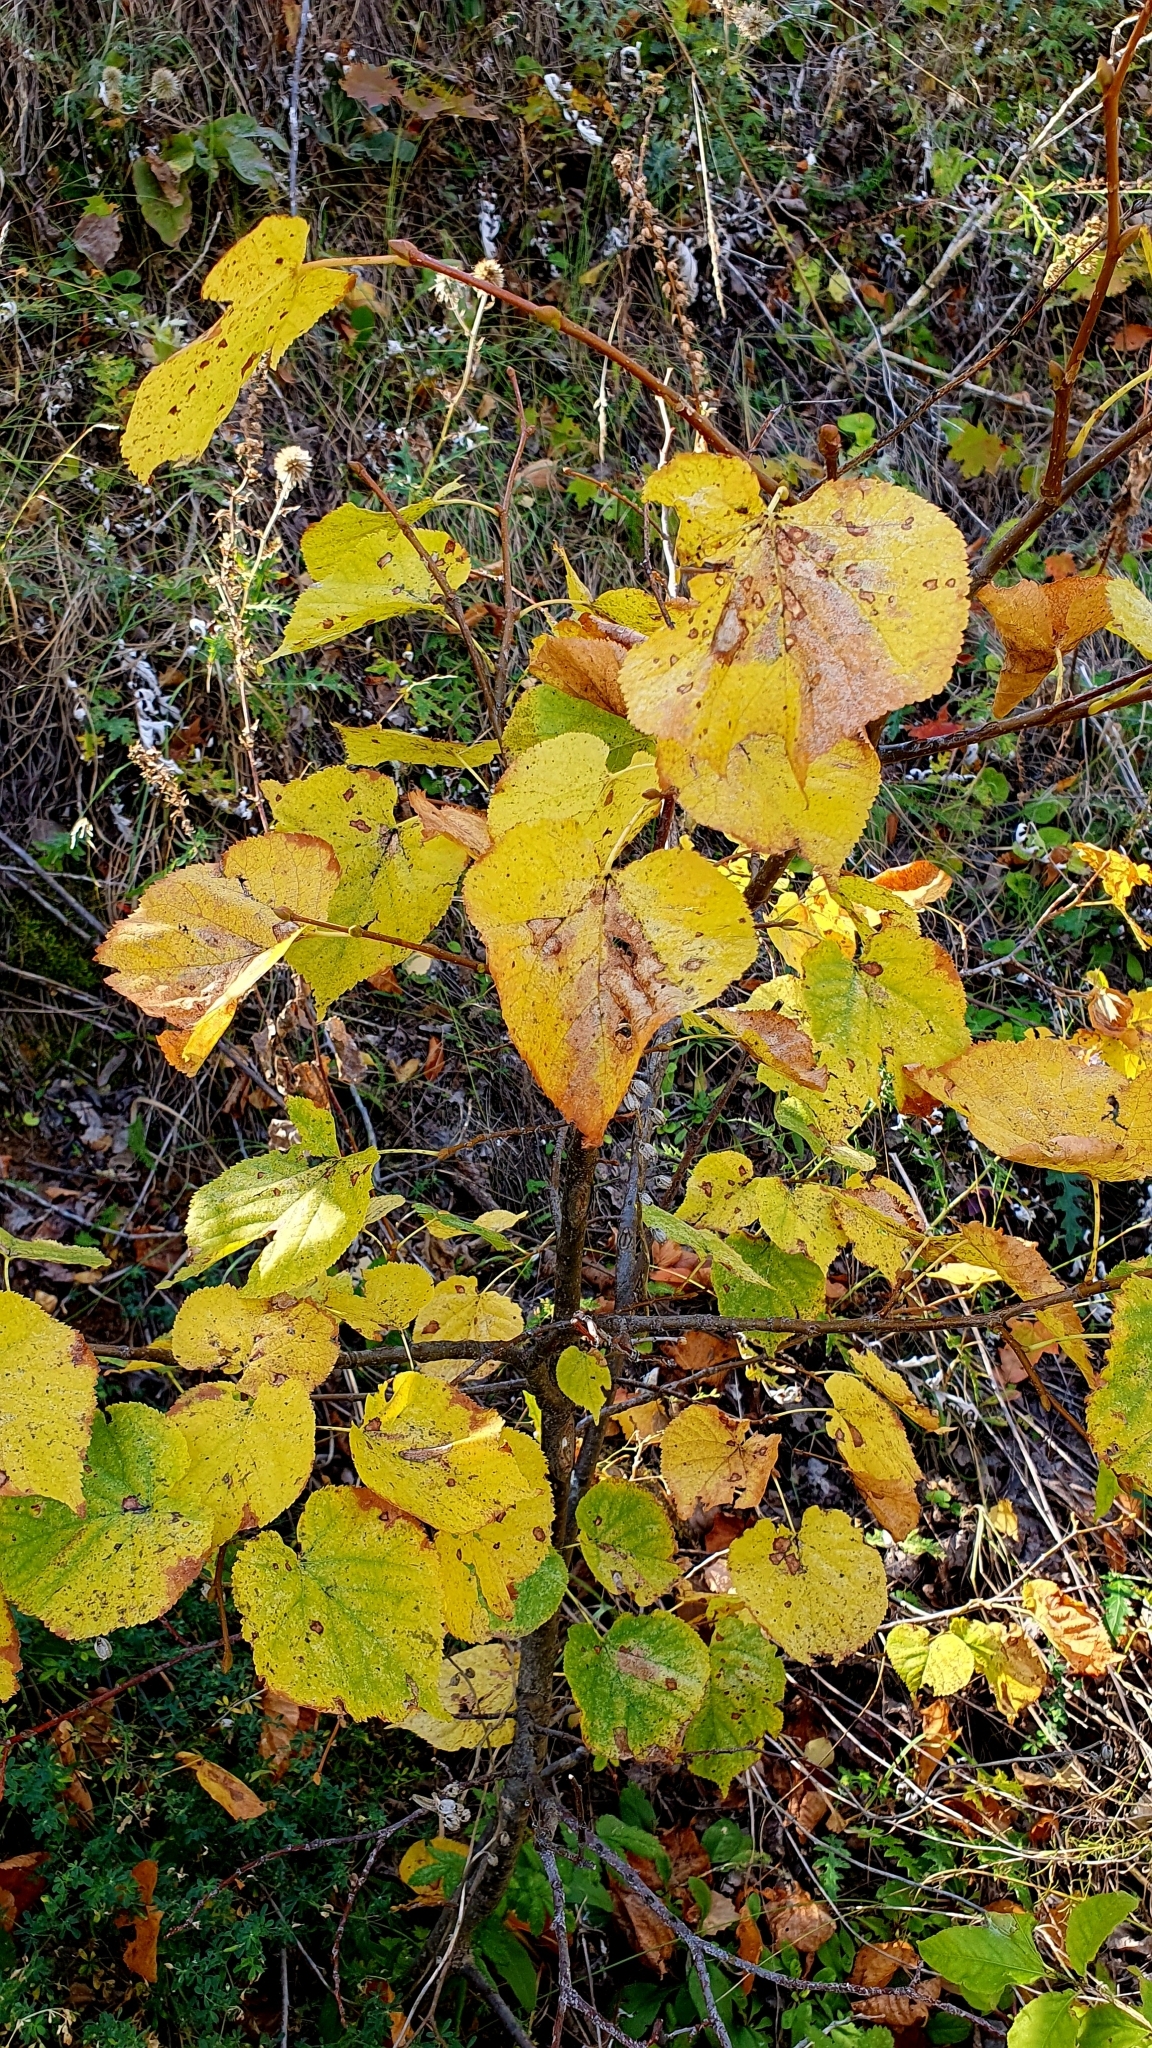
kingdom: Plantae
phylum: Tracheophyta
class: Magnoliopsida
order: Malvales
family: Malvaceae
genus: Tilia
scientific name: Tilia cordata
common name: Small-leaved lime
